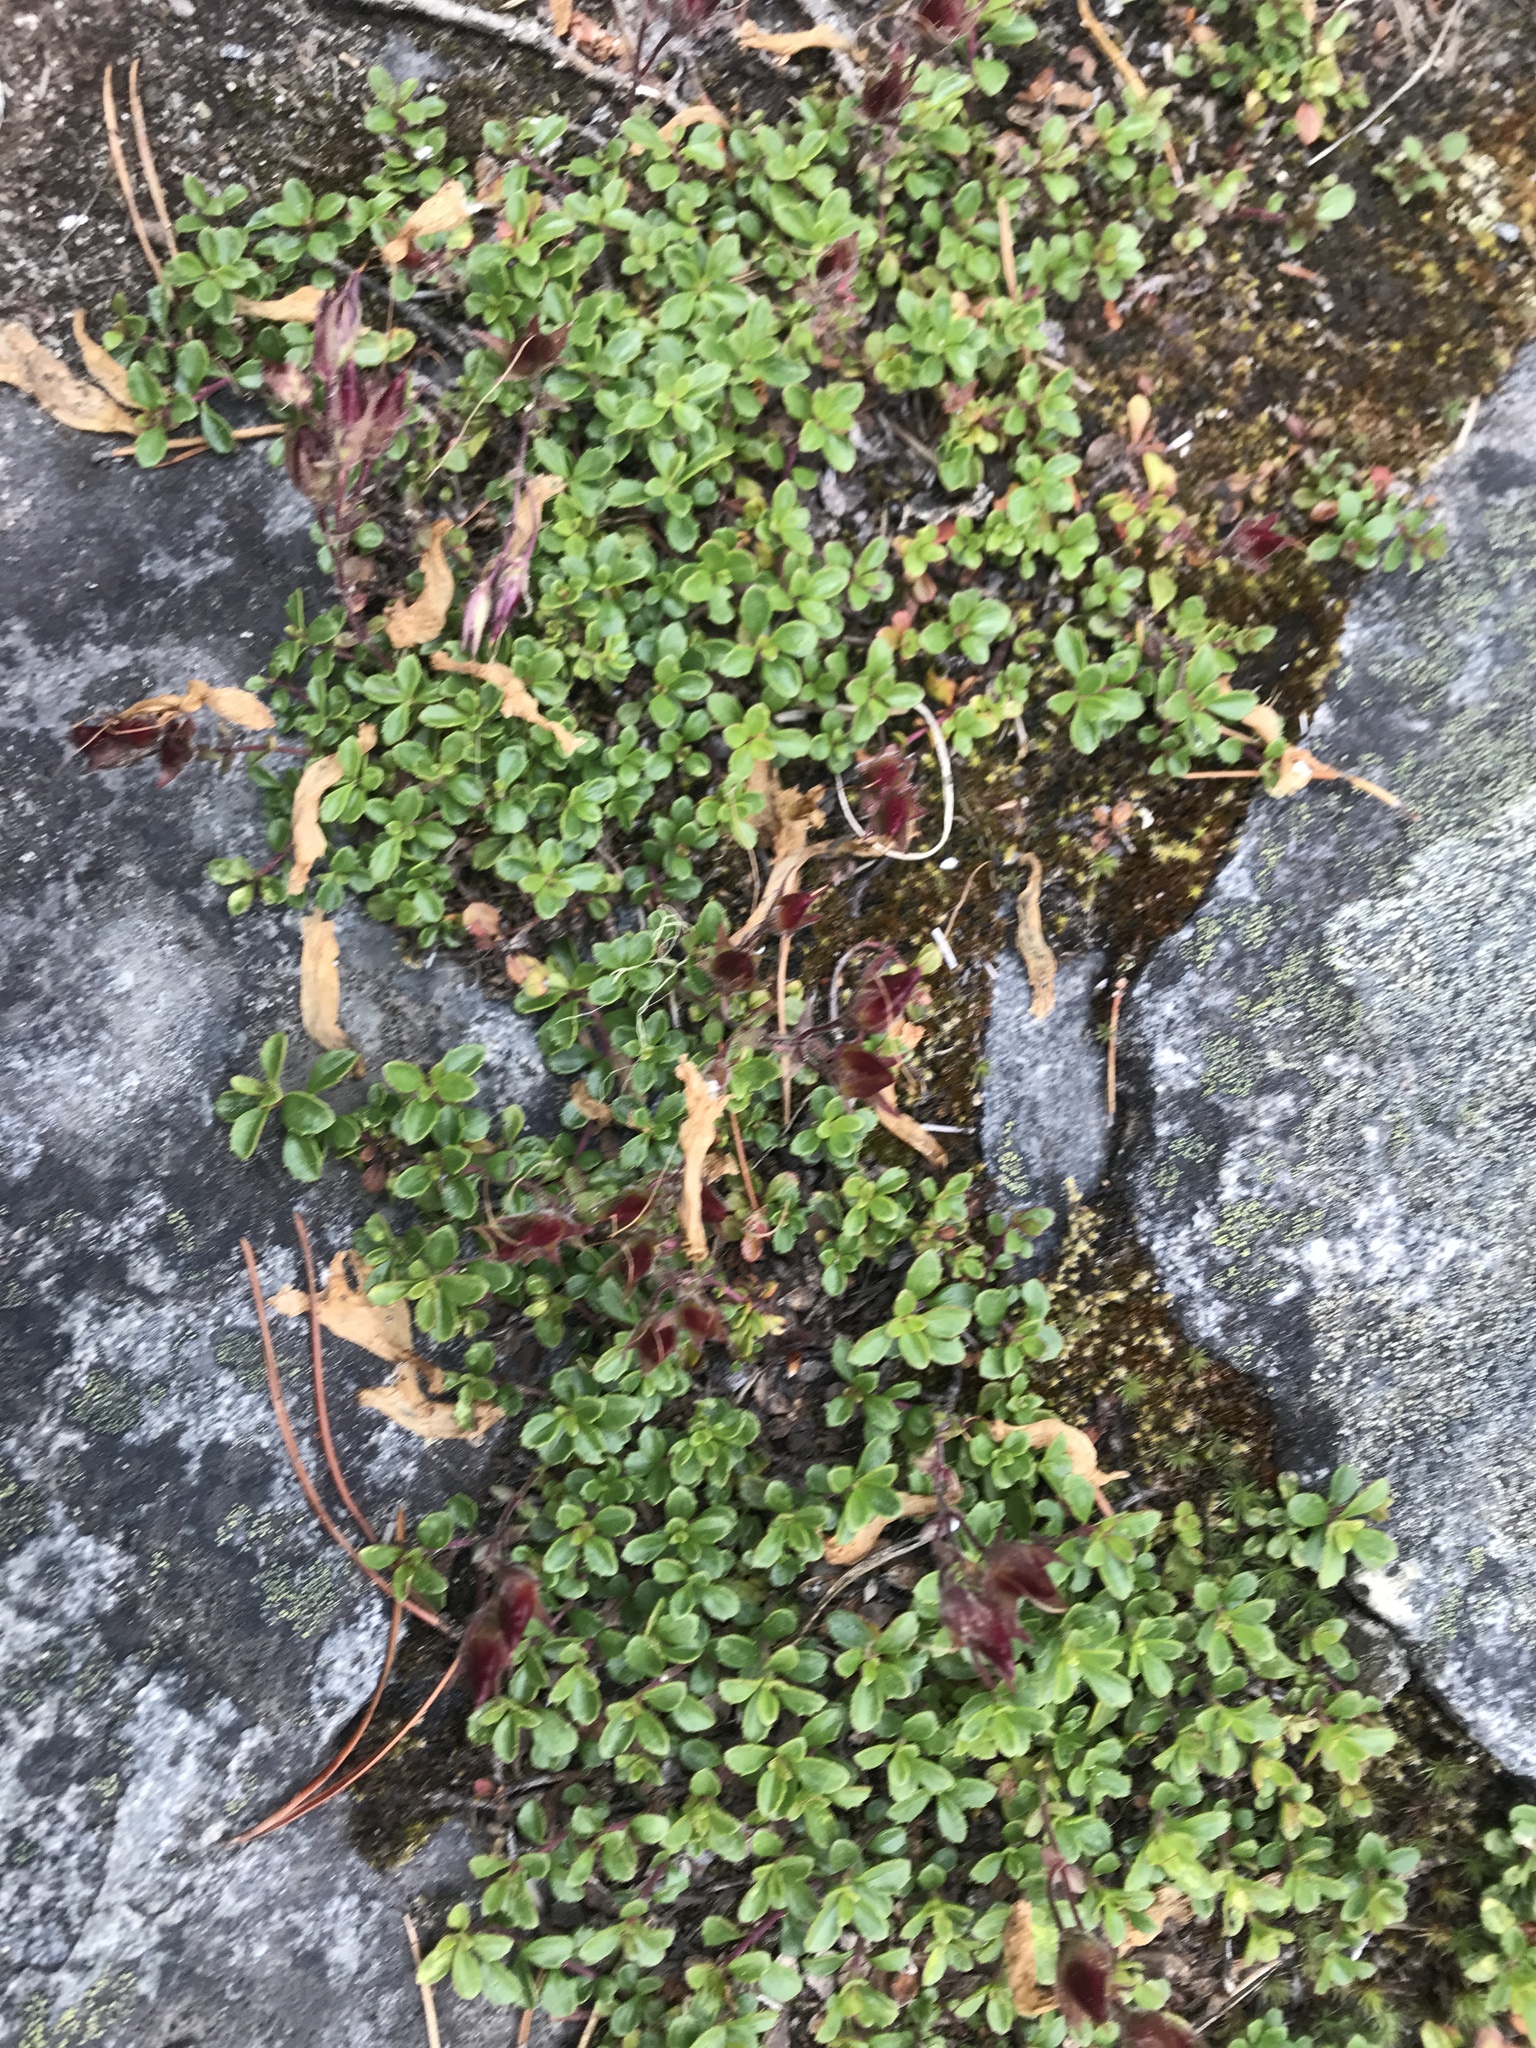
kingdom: Plantae
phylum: Tracheophyta
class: Magnoliopsida
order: Lamiales
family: Plantaginaceae
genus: Penstemon
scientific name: Penstemon davidsonii
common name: Davidson's penstemon
